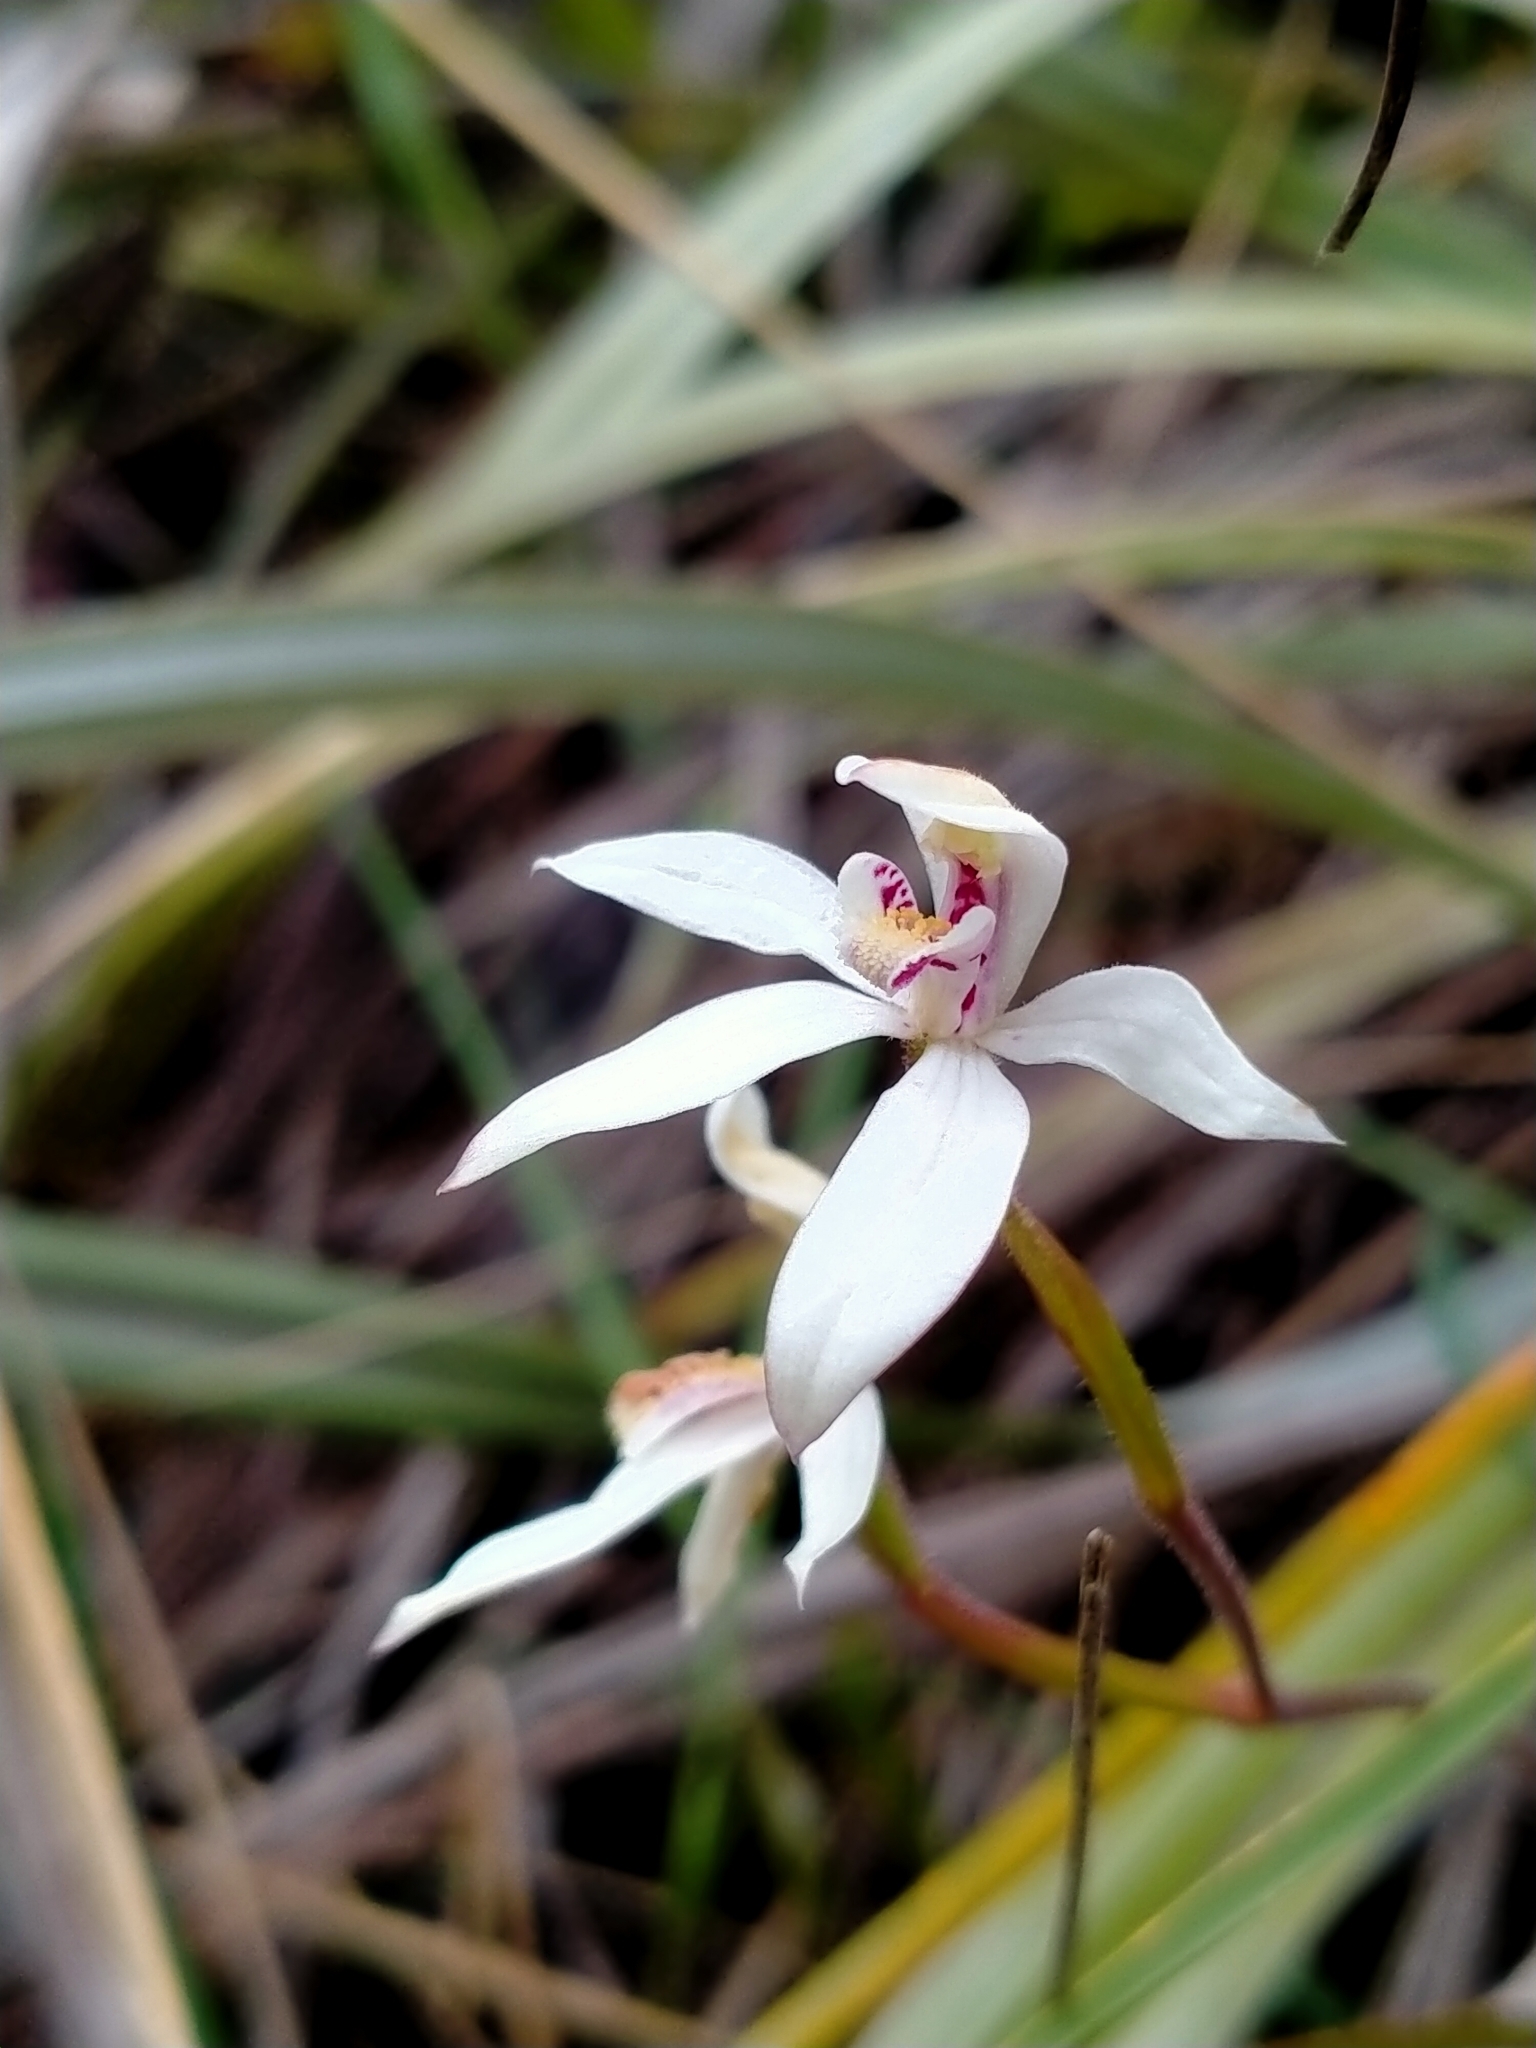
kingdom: Plantae
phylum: Tracheophyta
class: Liliopsida
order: Asparagales
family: Orchidaceae
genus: Caladenia
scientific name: Caladenia lyallii
